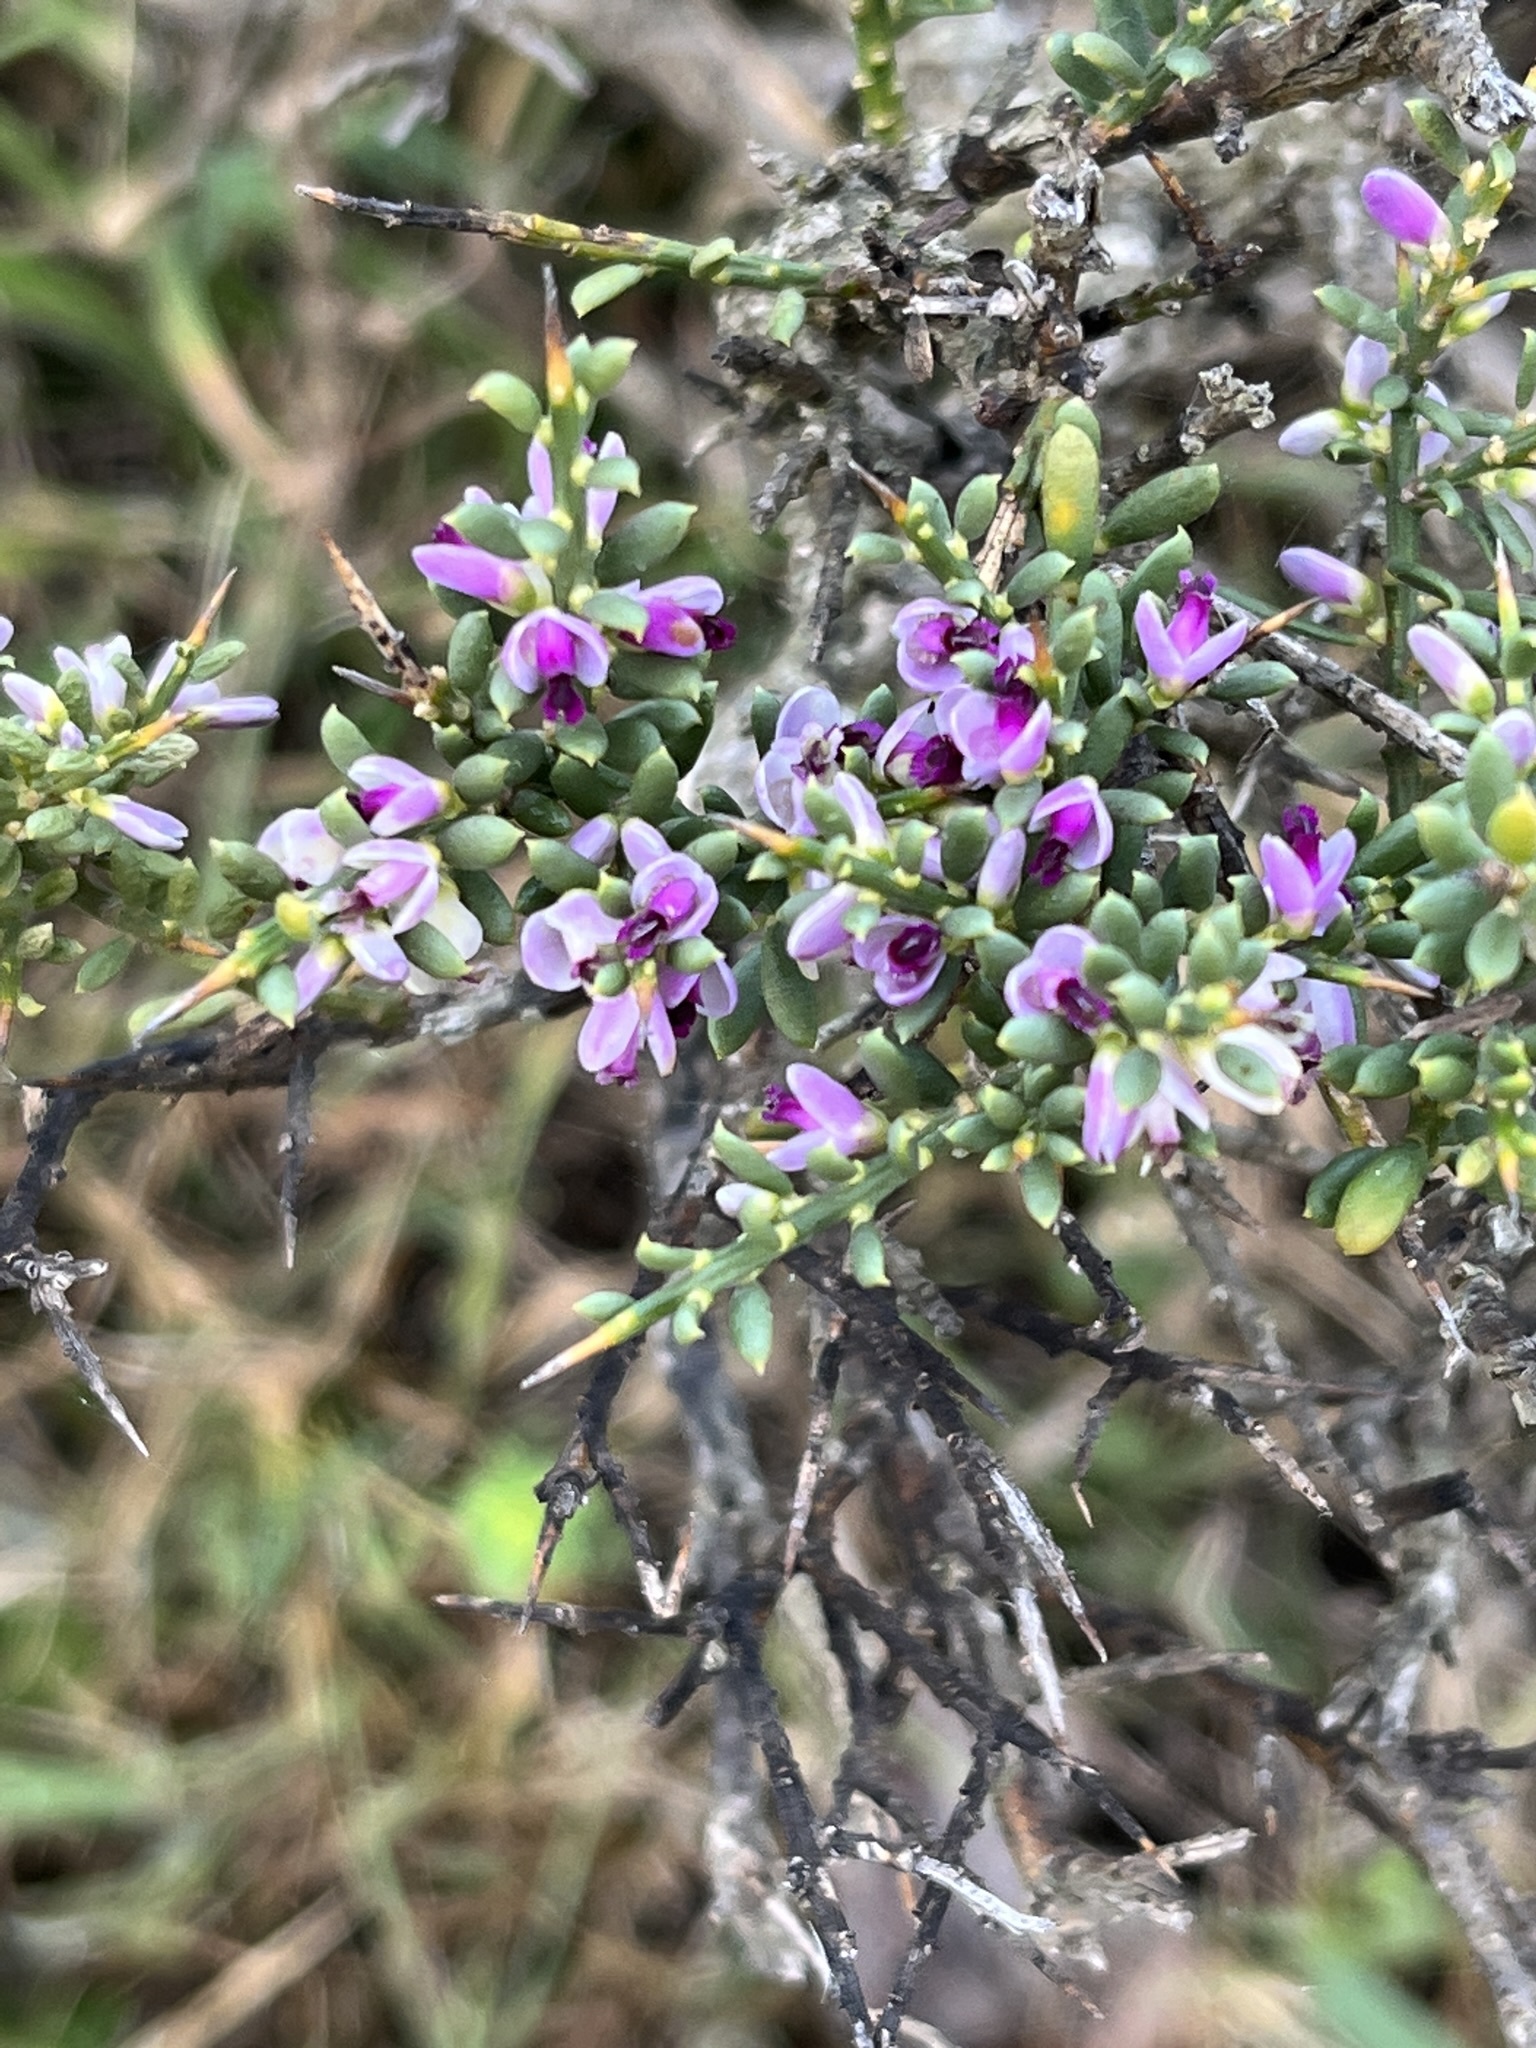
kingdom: Plantae
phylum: Tracheophyta
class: Magnoliopsida
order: Fabales
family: Polygalaceae
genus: Muraltia
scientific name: Muraltia spinosa
